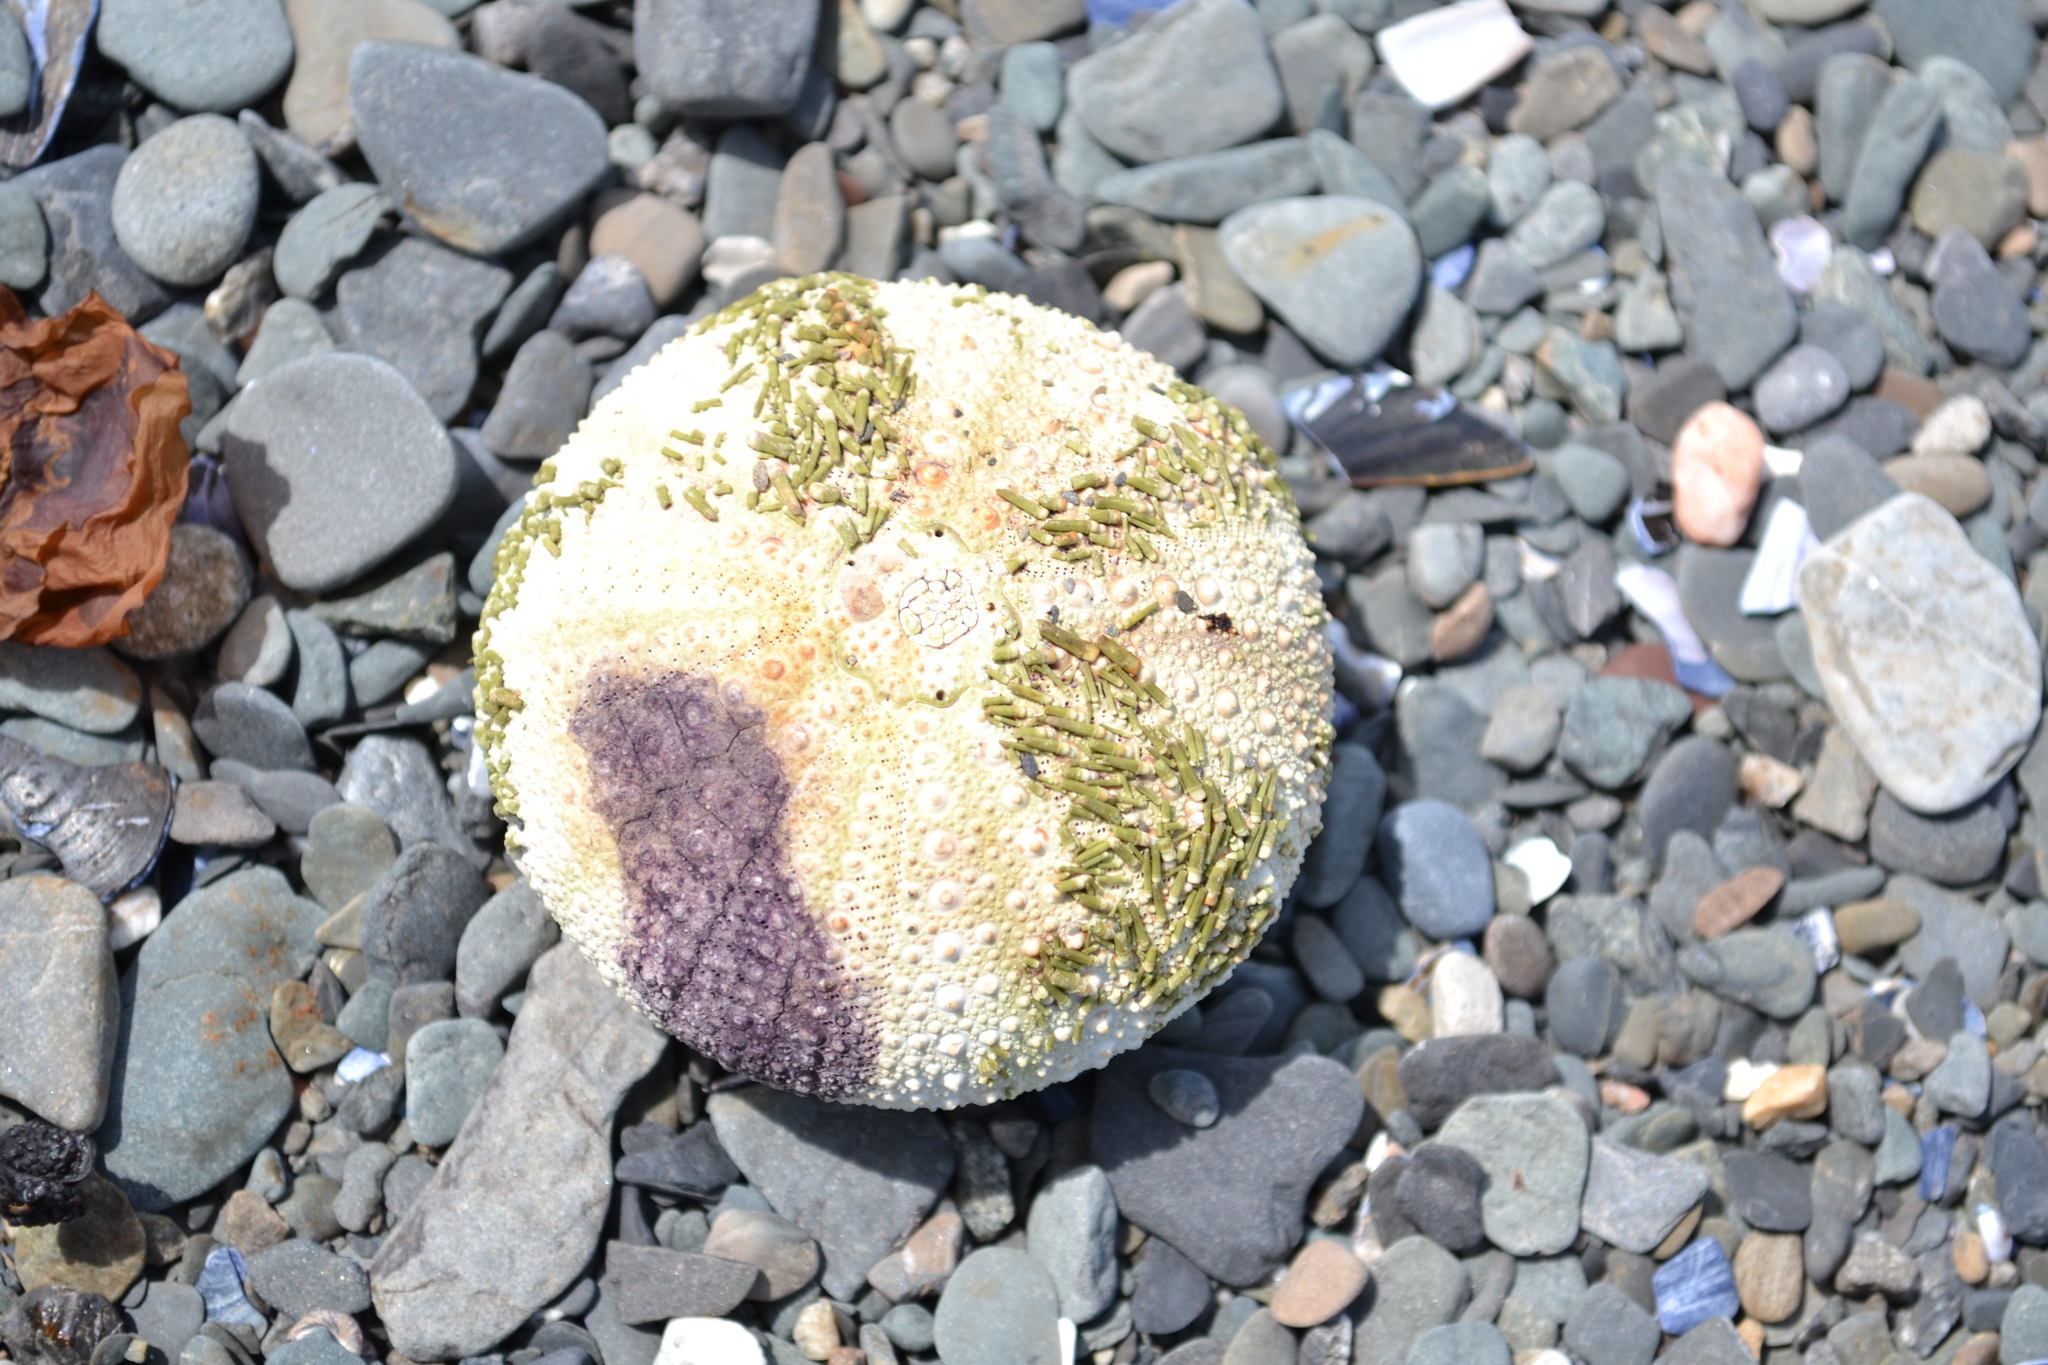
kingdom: Animalia
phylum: Echinodermata
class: Echinoidea
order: Camarodonta
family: Strongylocentrotidae
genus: Strongylocentrotus
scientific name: Strongylocentrotus droebachiensis
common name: Northern sea urchin
